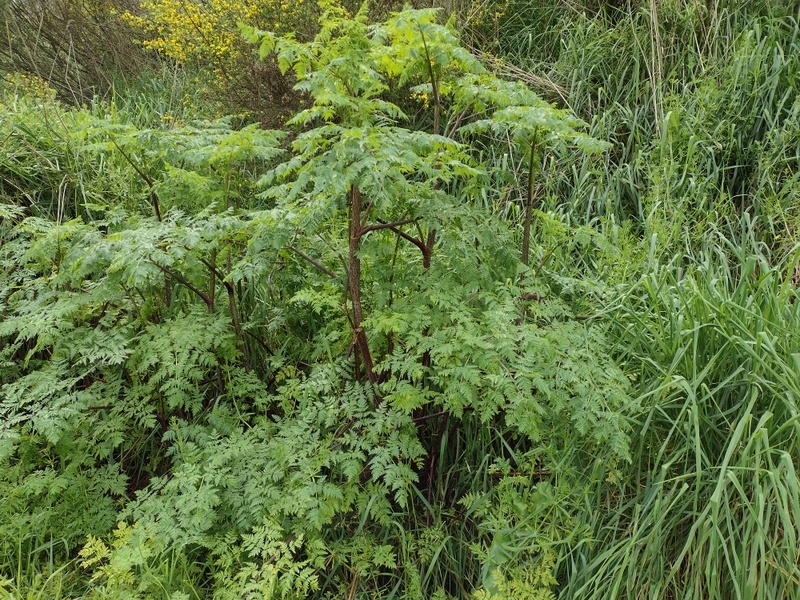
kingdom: Plantae
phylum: Tracheophyta
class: Magnoliopsida
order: Apiales
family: Apiaceae
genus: Conium
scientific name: Conium maculatum
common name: Hemlock
